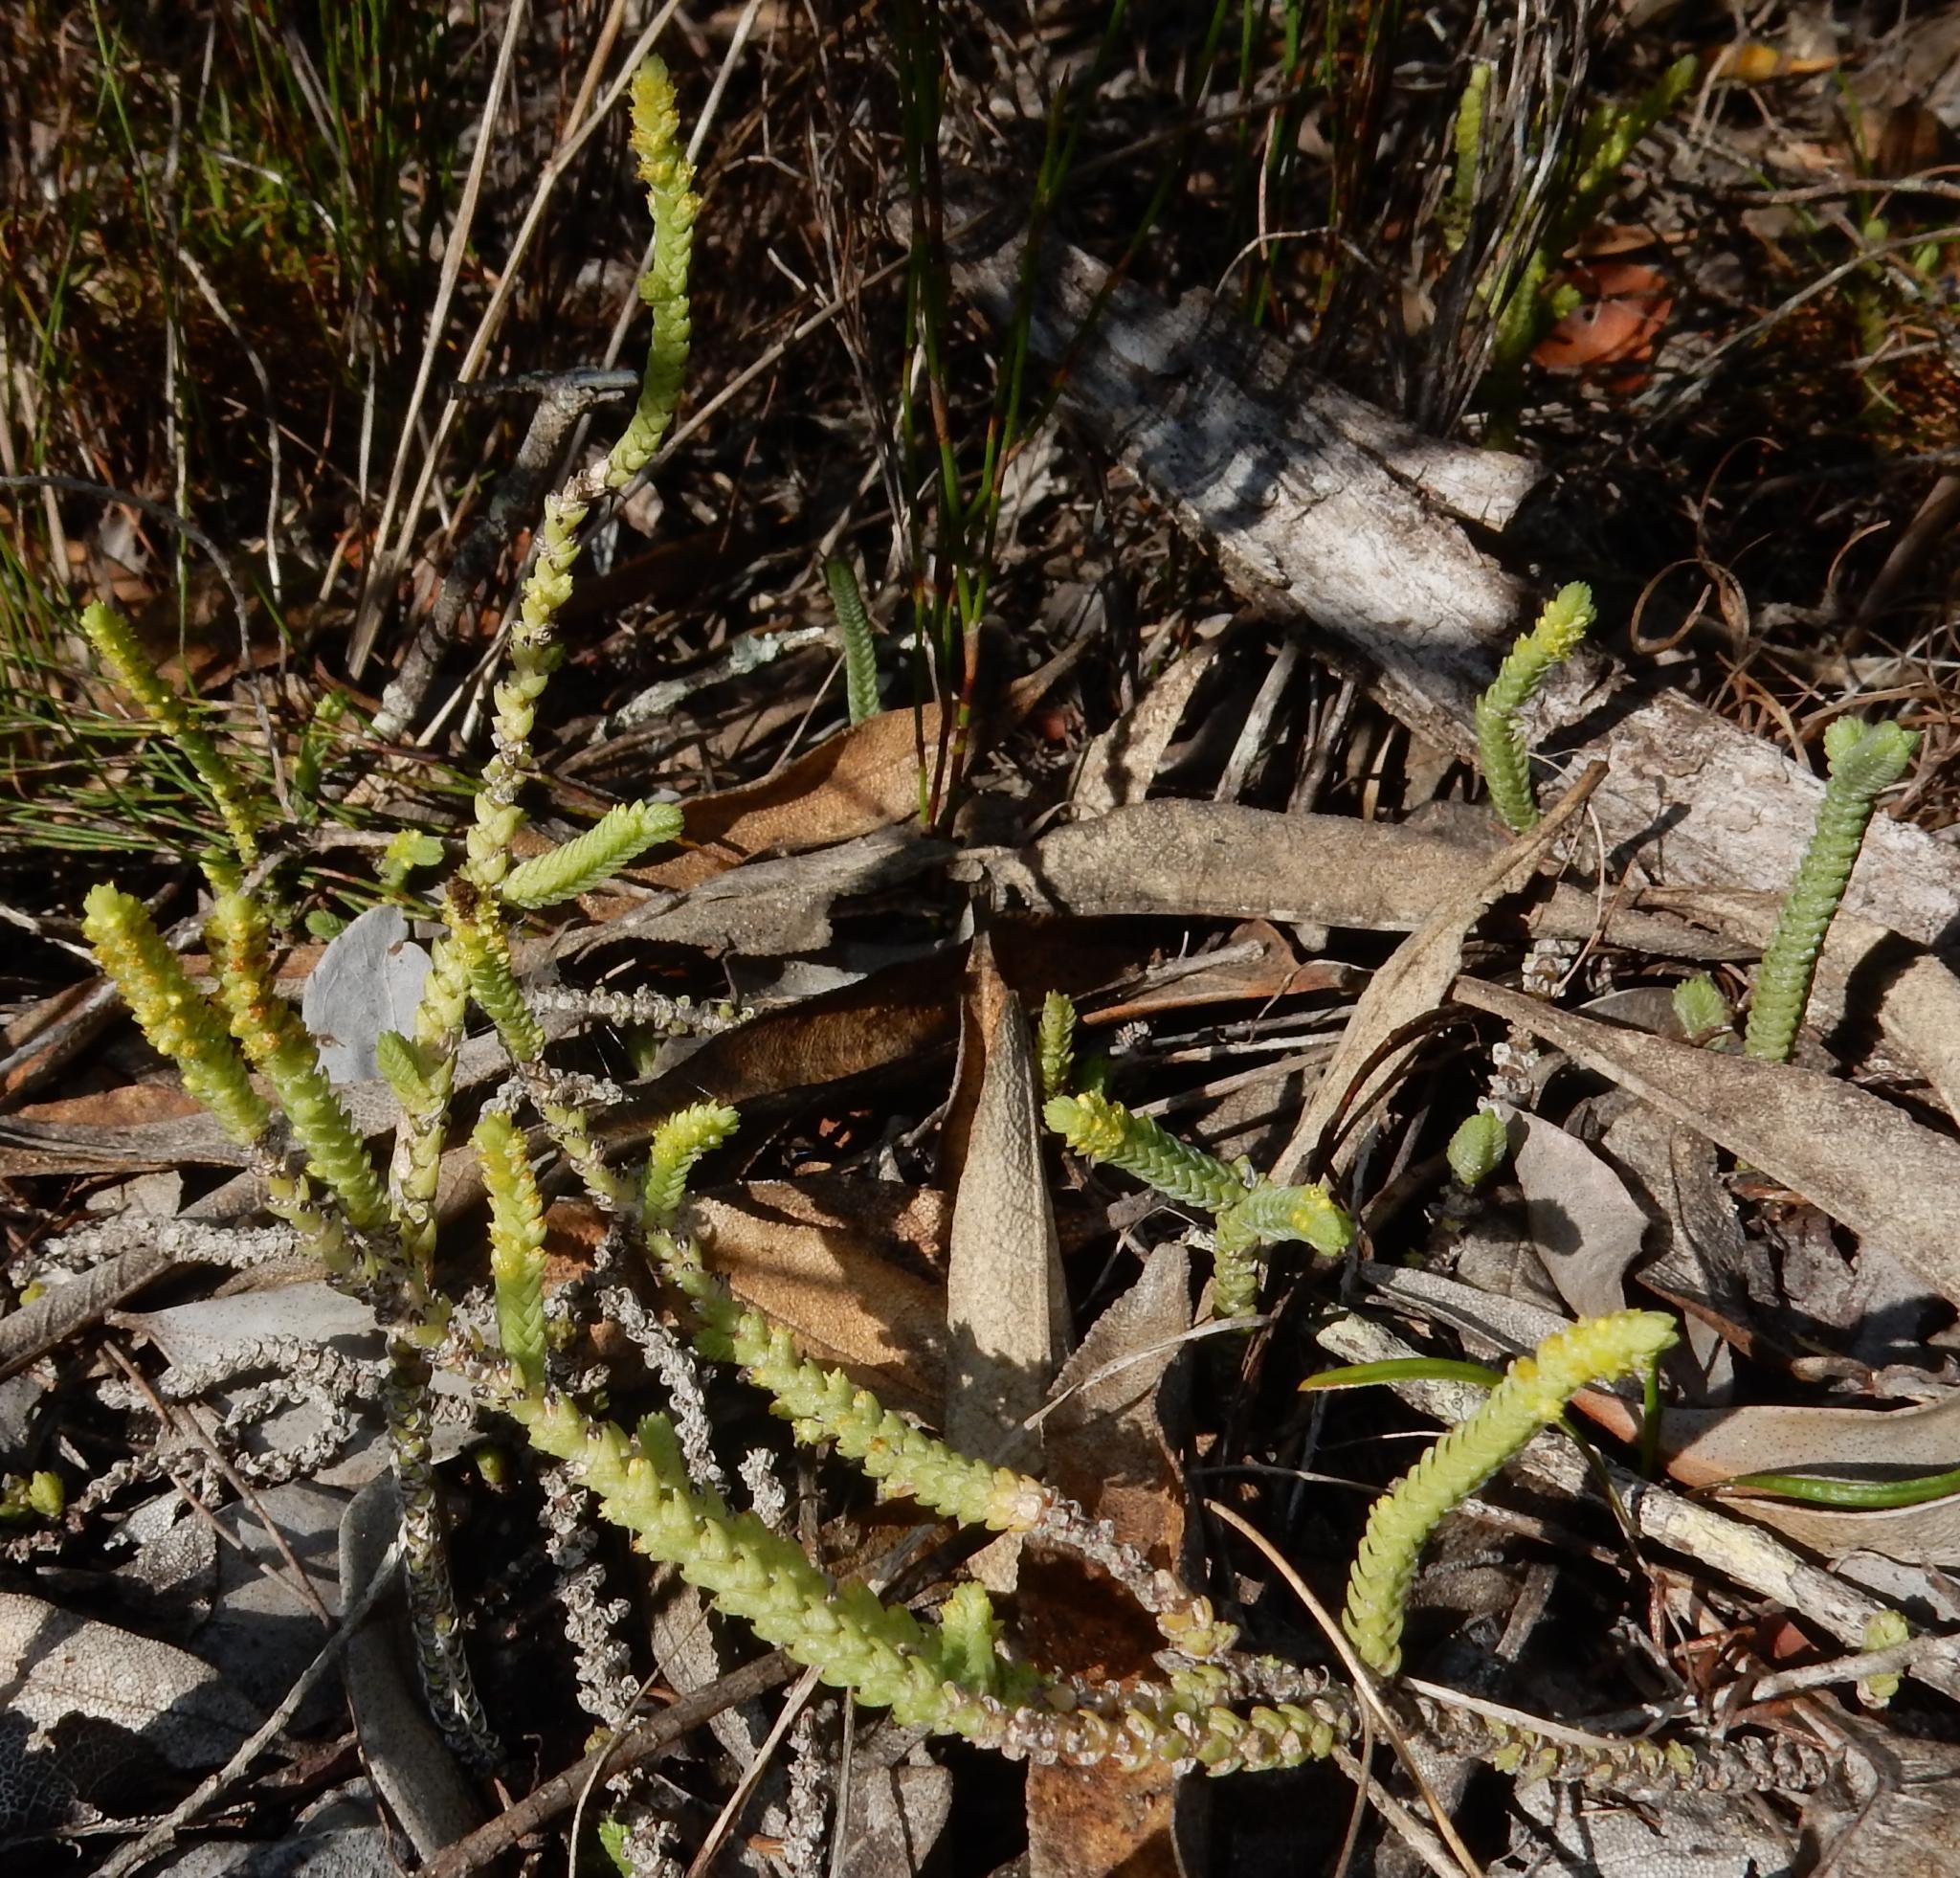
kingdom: Plantae
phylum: Tracheophyta
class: Magnoliopsida
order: Saxifragales
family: Crassulaceae
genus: Crassula
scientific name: Crassula muscosa
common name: Toy-cypress
